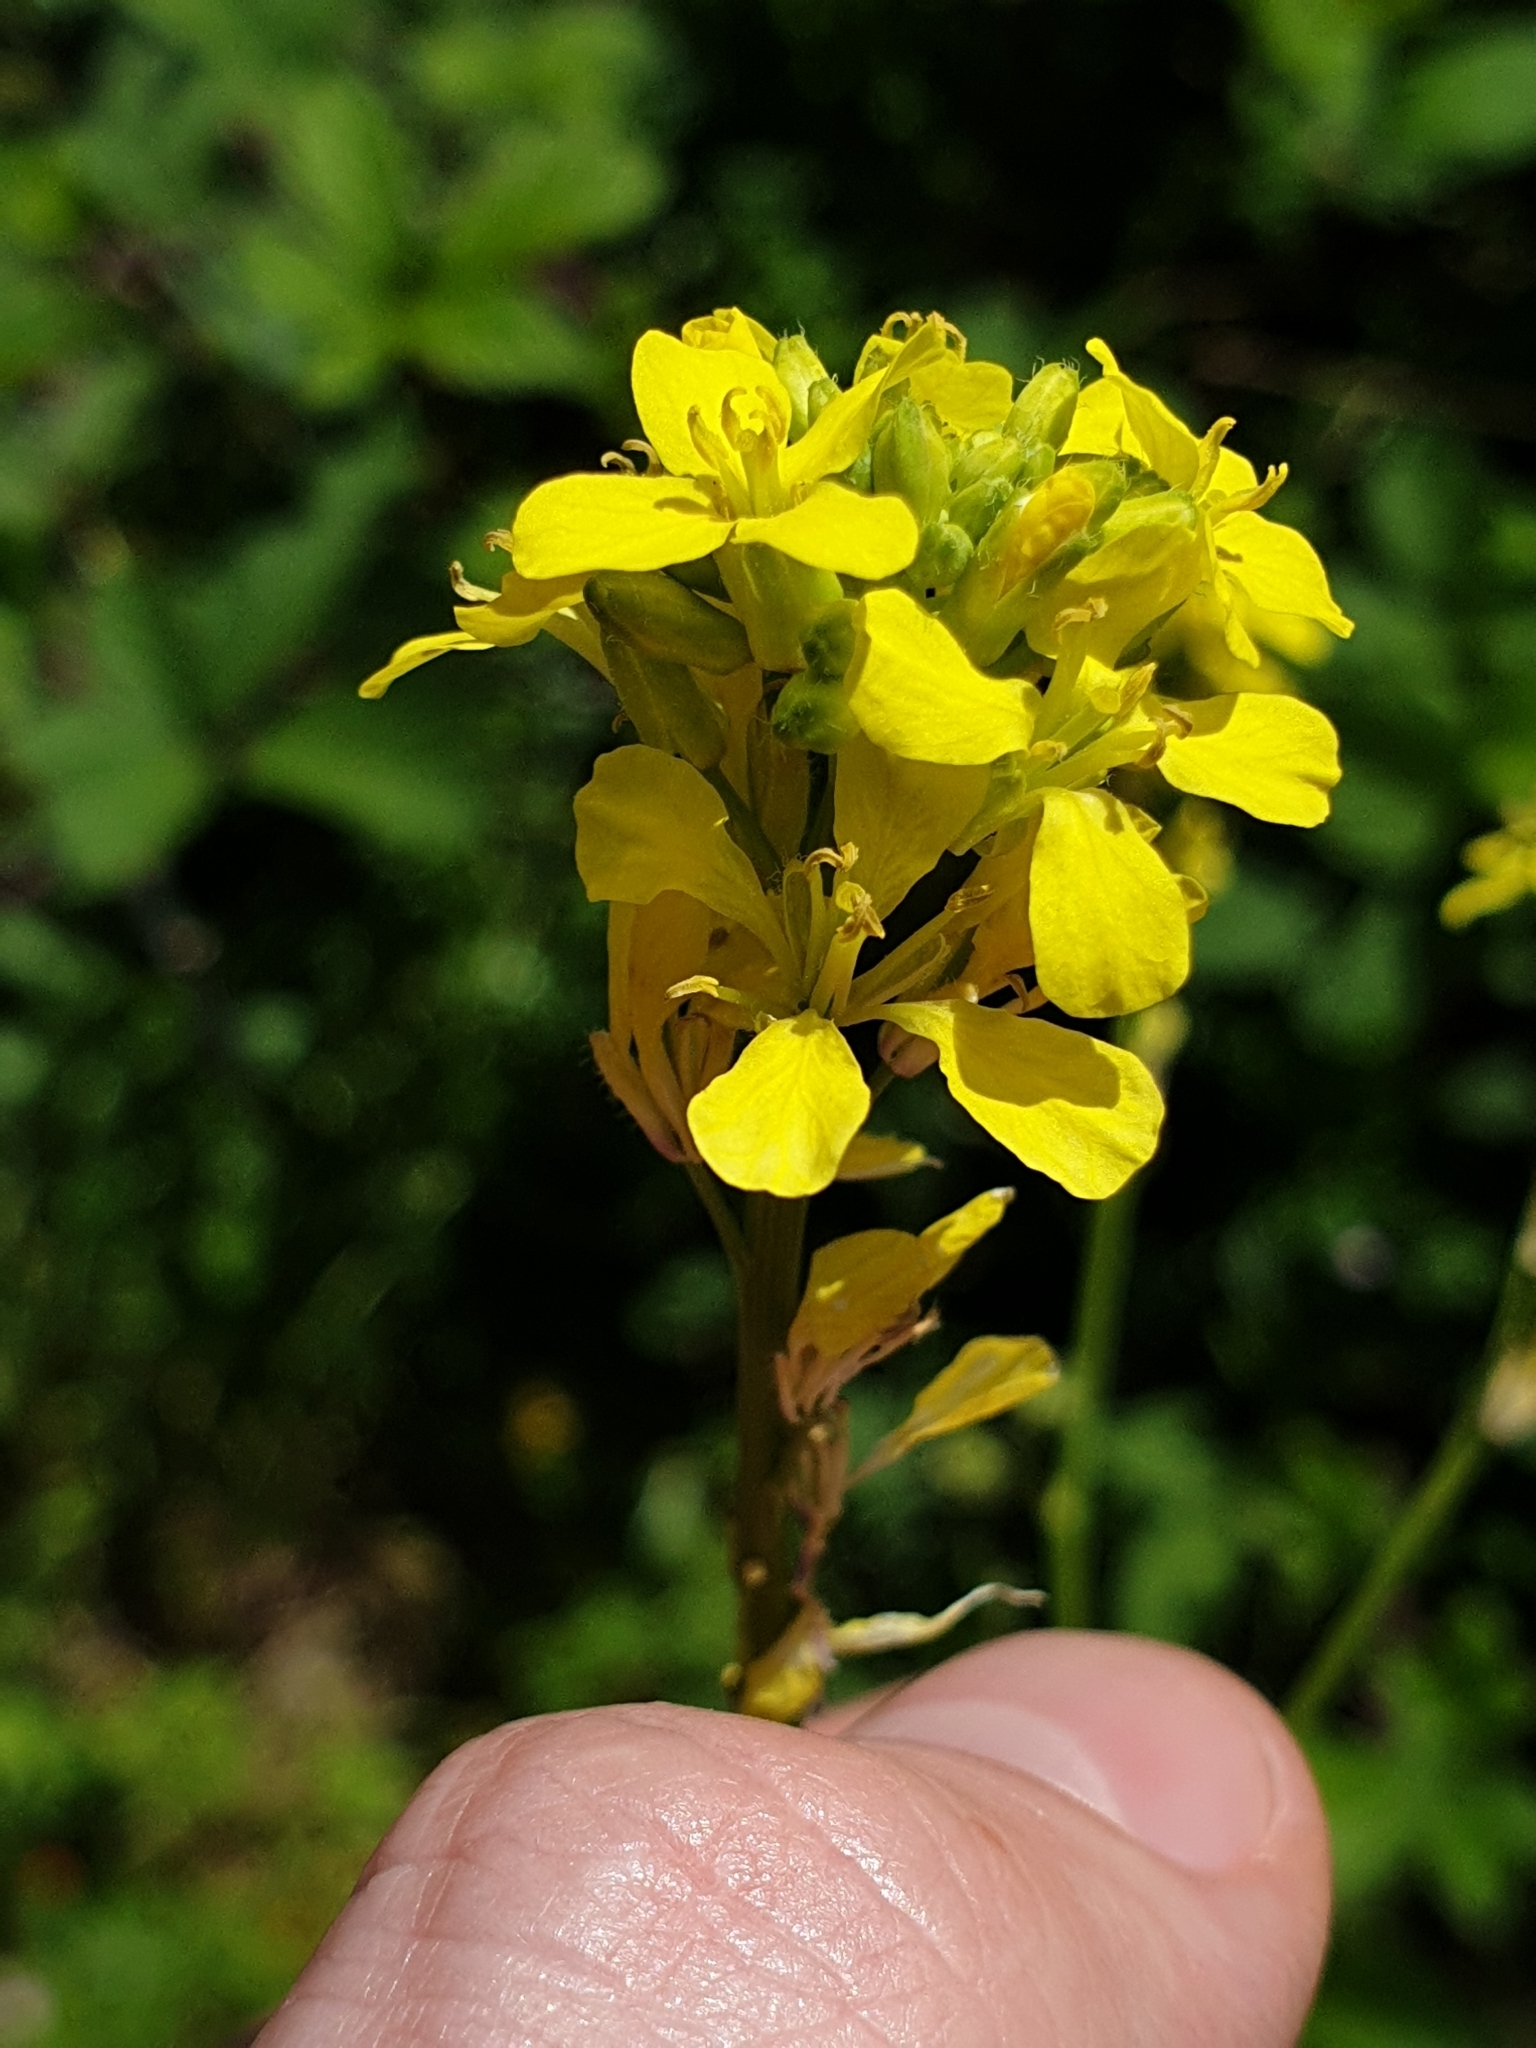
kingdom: Plantae
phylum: Tracheophyta
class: Magnoliopsida
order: Brassicales
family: Brassicaceae
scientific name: Brassicaceae
